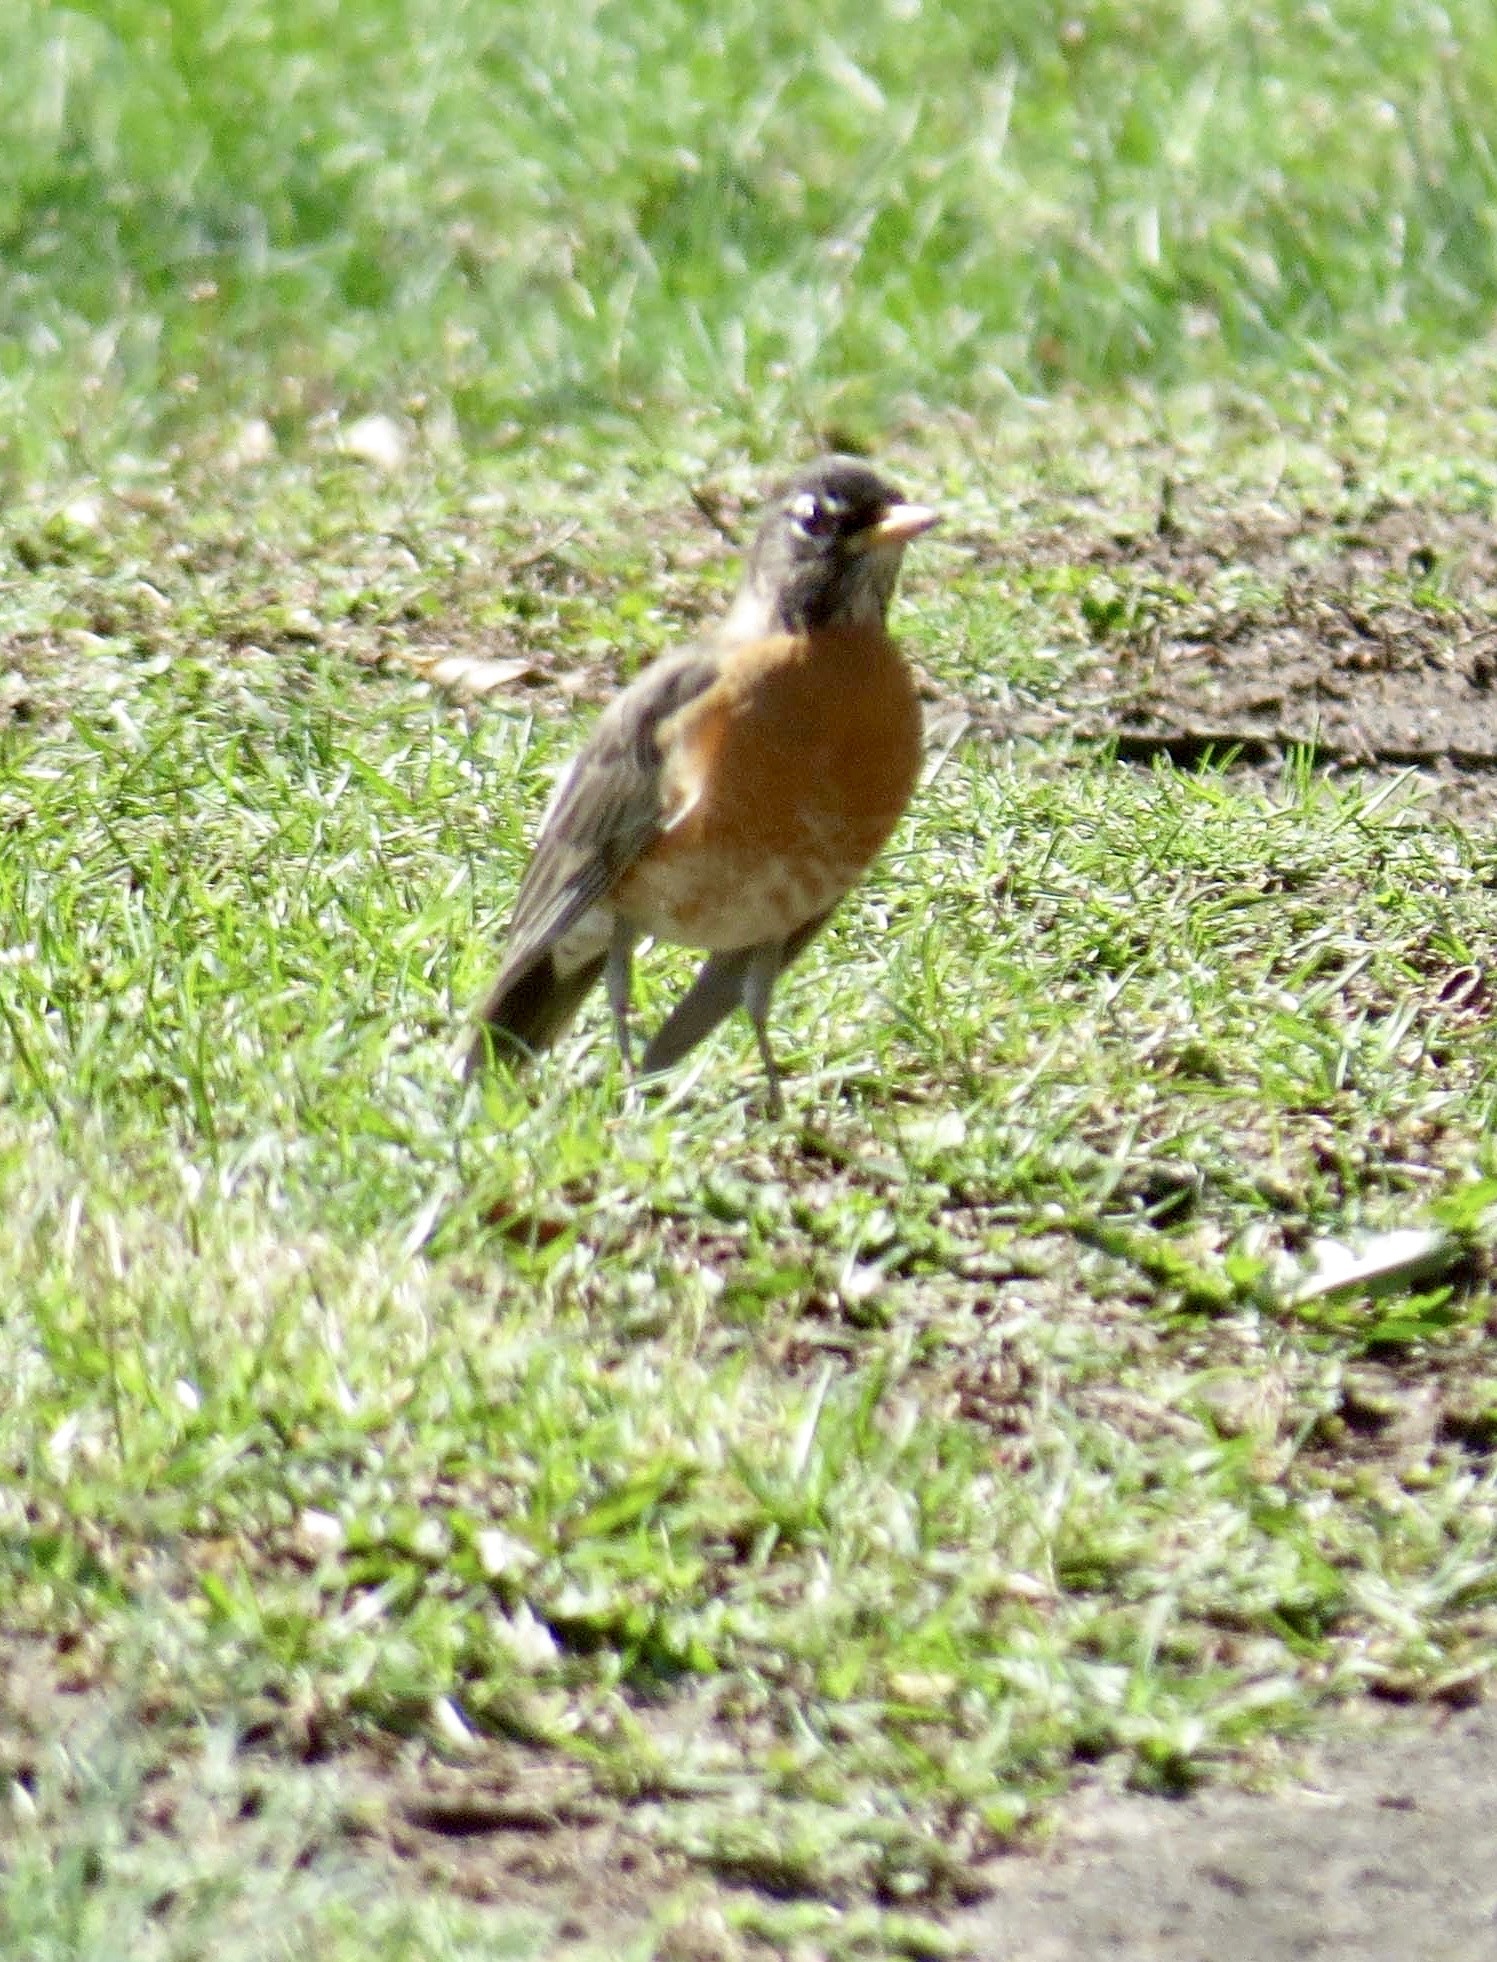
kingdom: Animalia
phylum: Chordata
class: Aves
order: Passeriformes
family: Turdidae
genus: Turdus
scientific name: Turdus migratorius
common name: American robin
